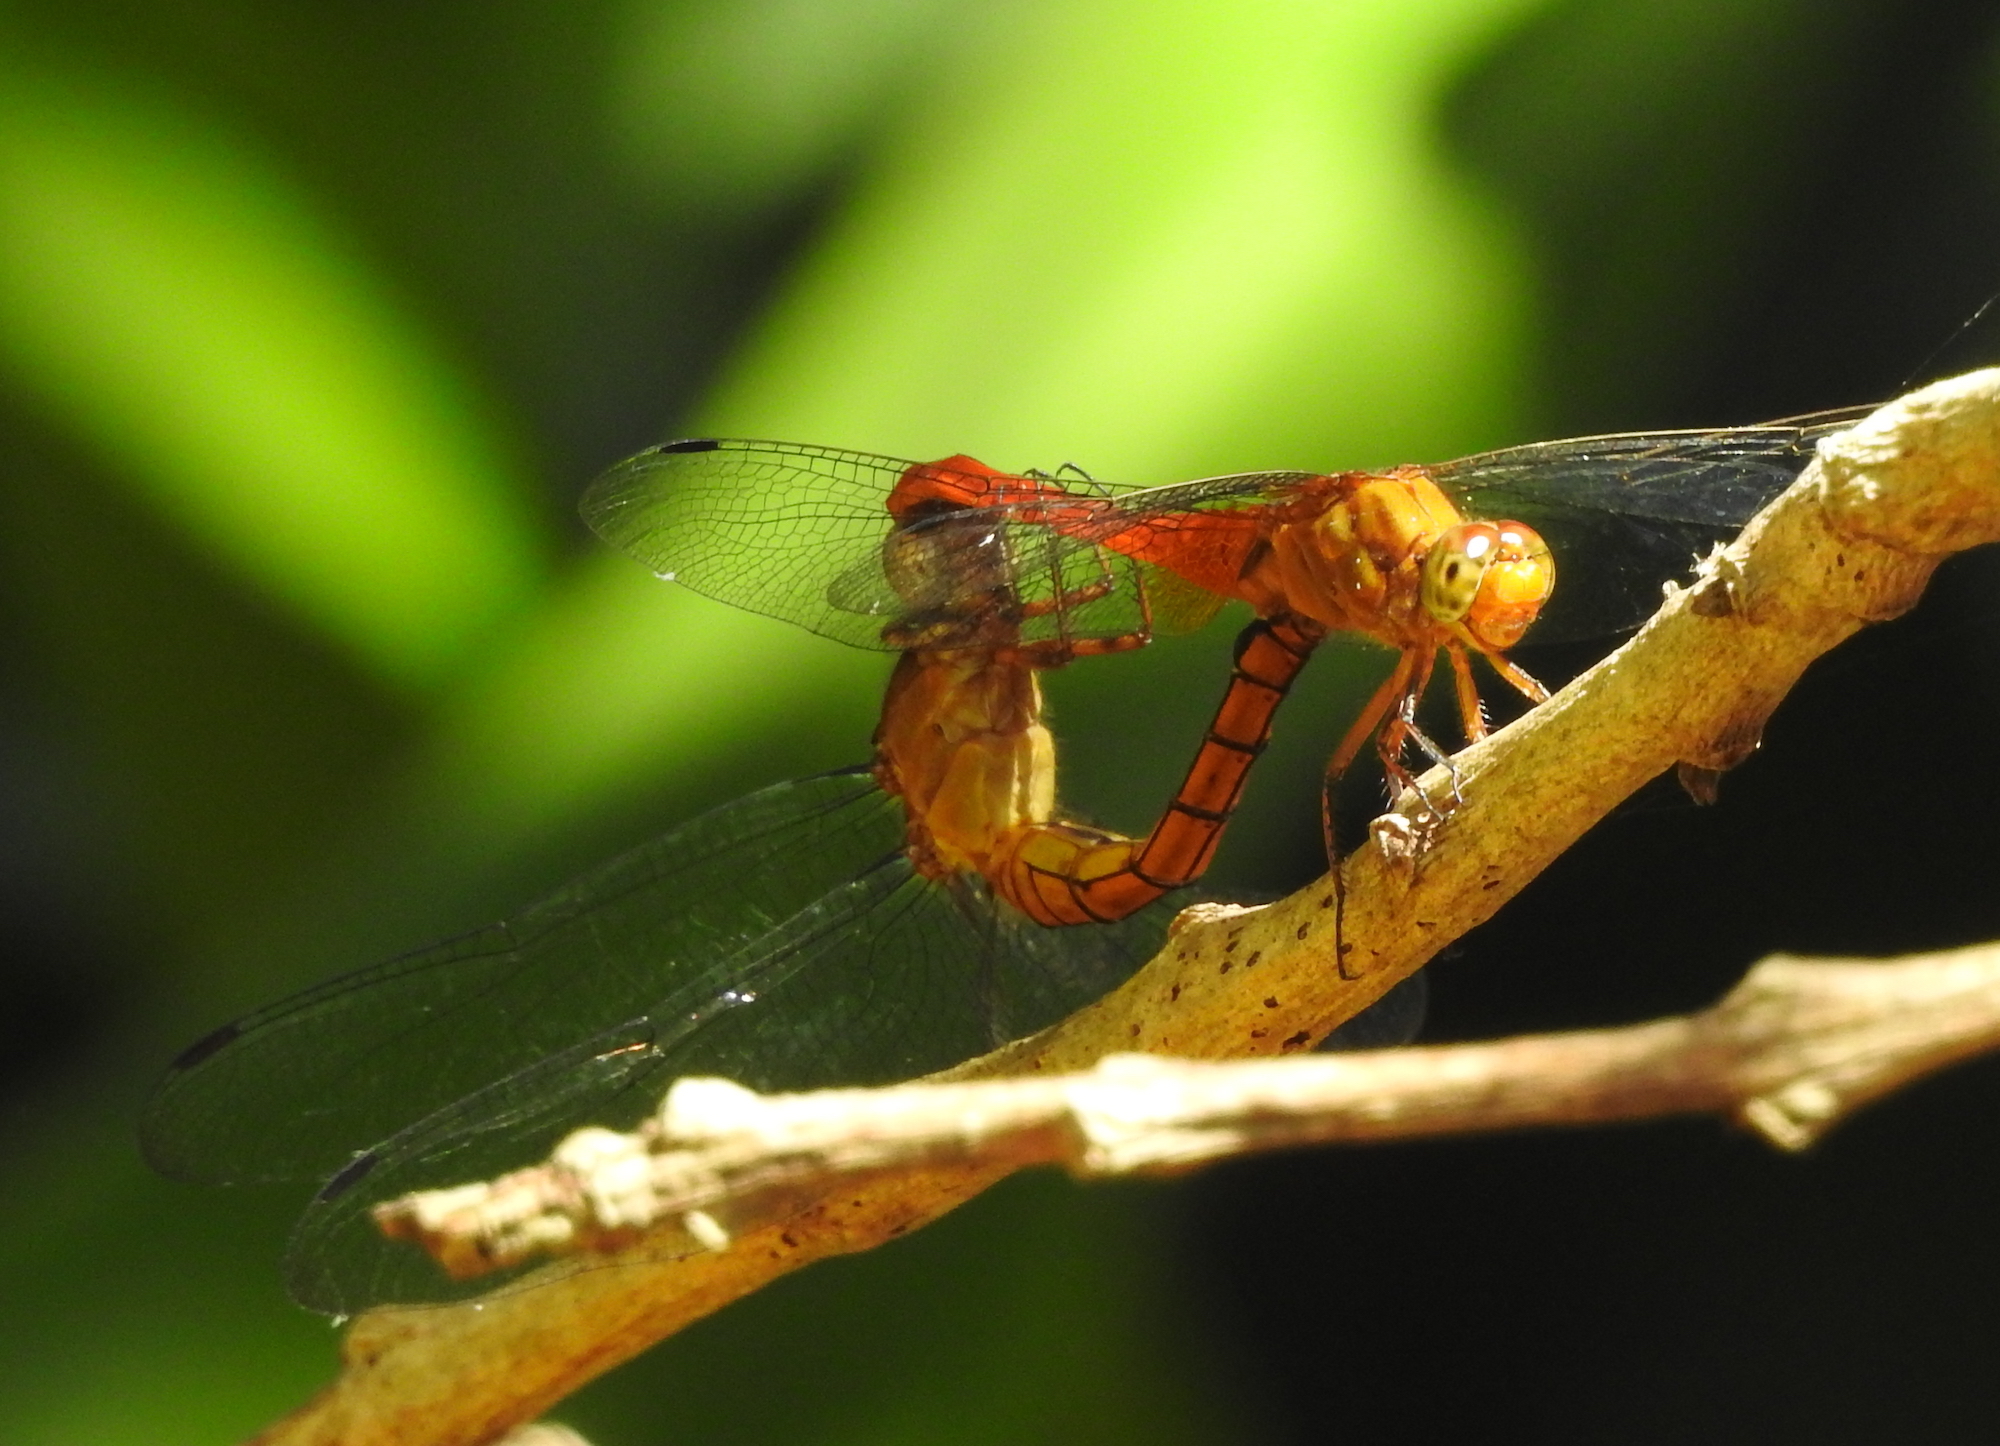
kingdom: Animalia
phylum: Arthropoda
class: Insecta
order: Odonata
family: Libellulidae
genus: Orthetrum
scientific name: Orthetrum testaceum
